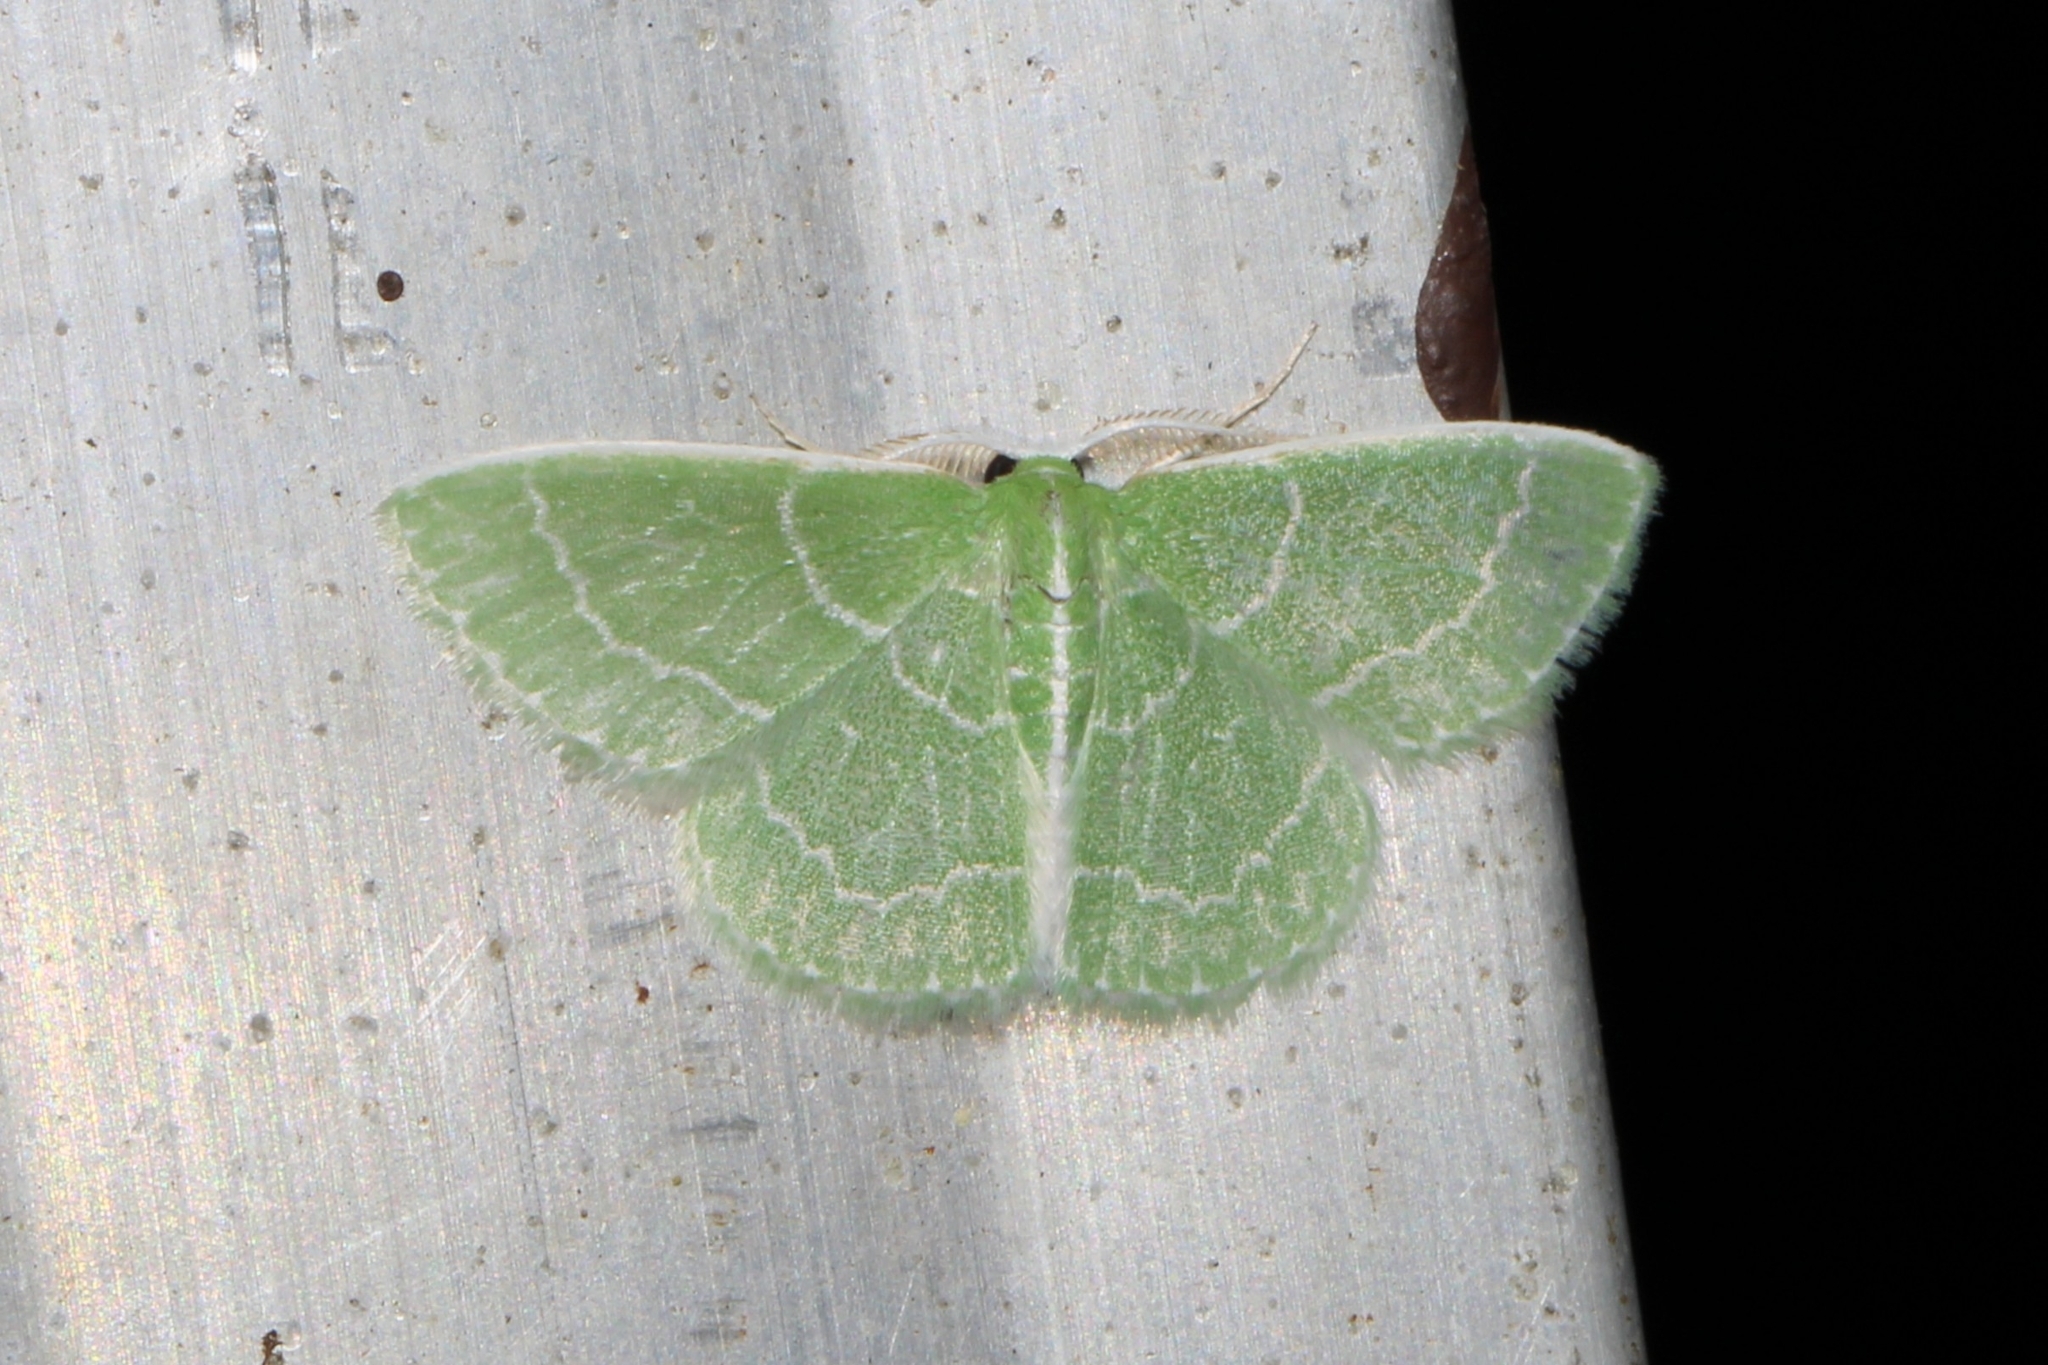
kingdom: Animalia
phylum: Arthropoda
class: Insecta
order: Lepidoptera
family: Geometridae
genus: Synchlora
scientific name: Synchlora aerata
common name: Wavy-lined emerald
